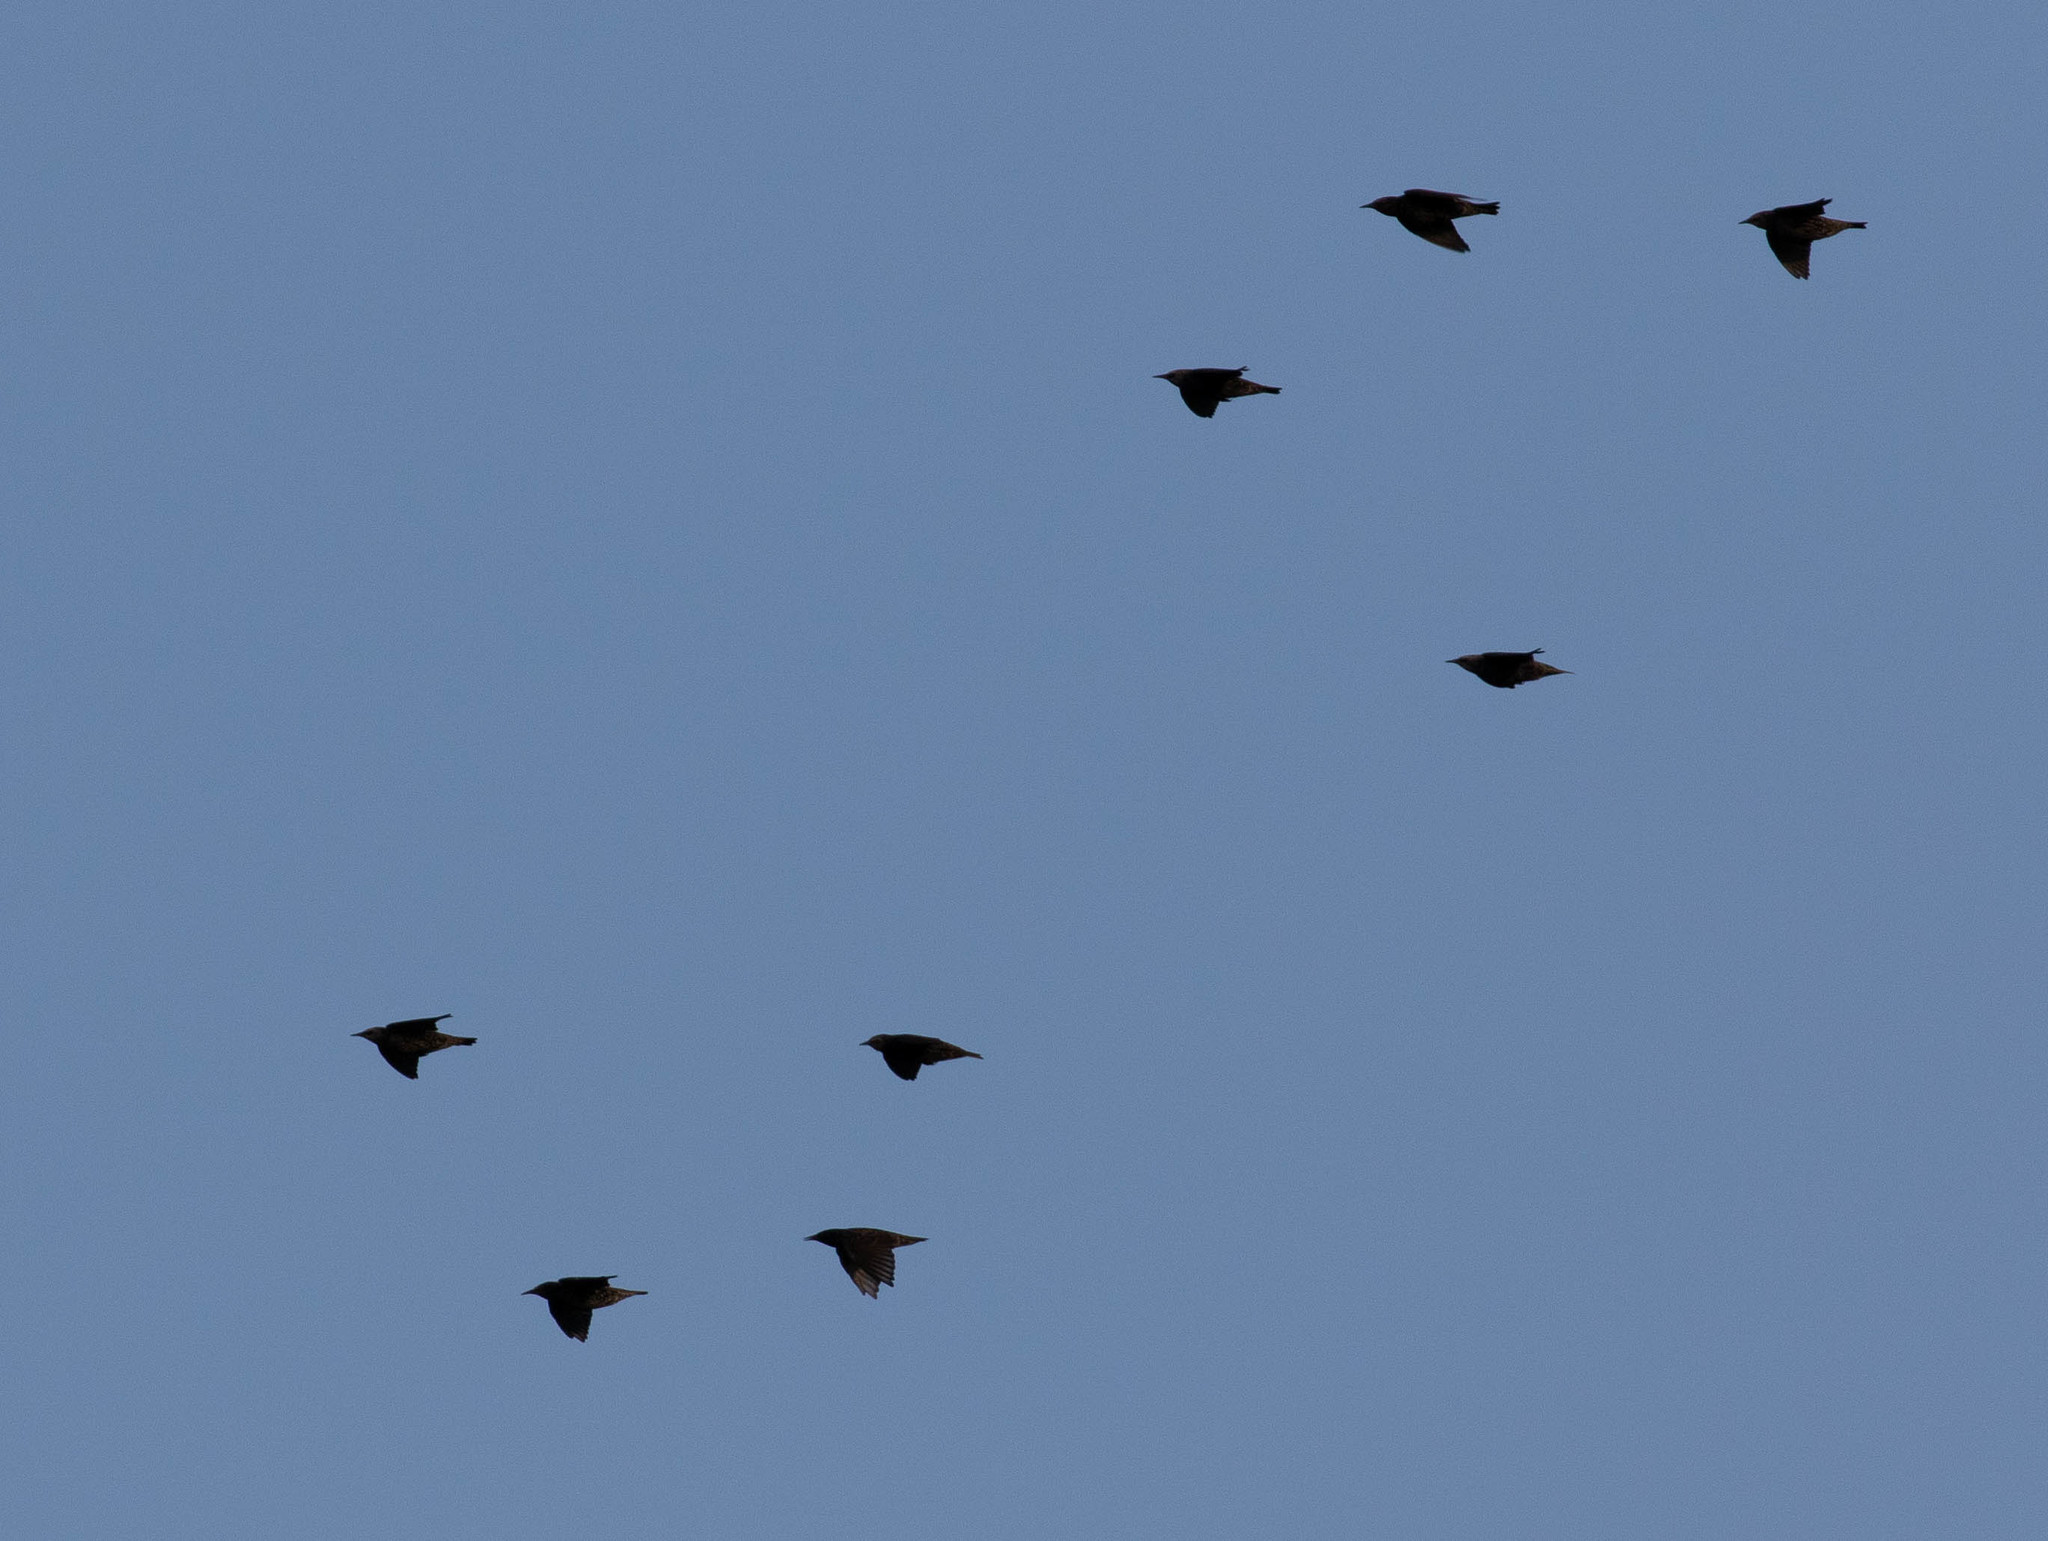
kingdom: Animalia
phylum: Chordata
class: Aves
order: Passeriformes
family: Sturnidae
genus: Sturnus
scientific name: Sturnus vulgaris
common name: Common starling
